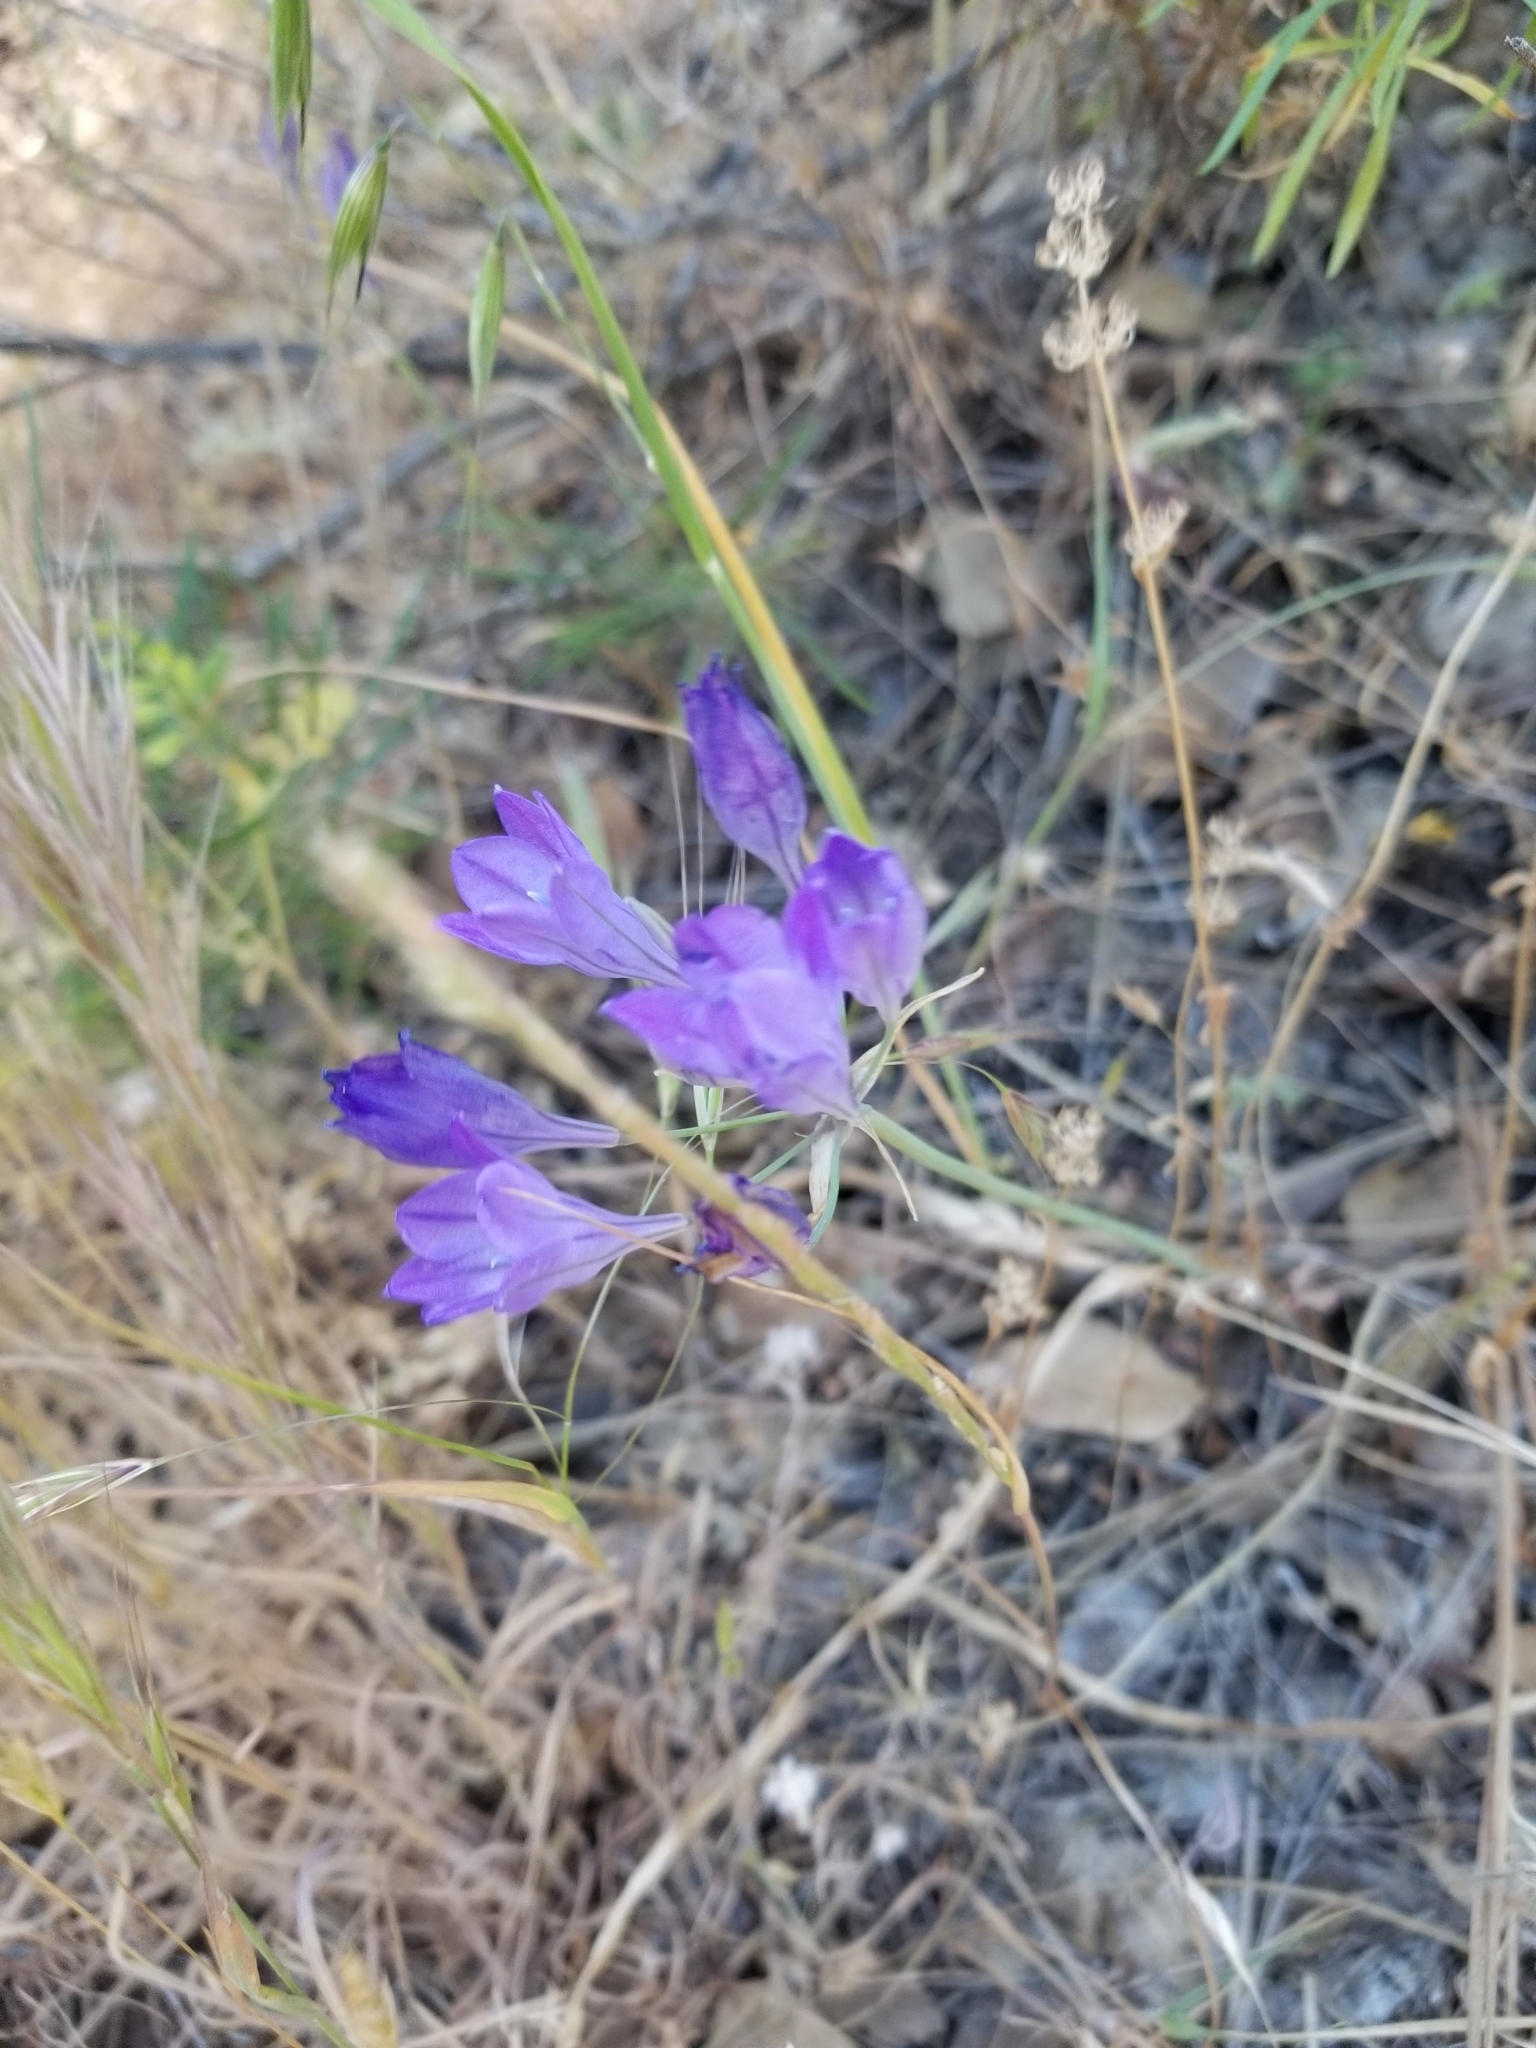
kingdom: Plantae
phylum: Tracheophyta
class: Liliopsida
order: Asparagales
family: Asparagaceae
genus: Triteleia
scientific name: Triteleia laxa
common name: Triplet-lily
